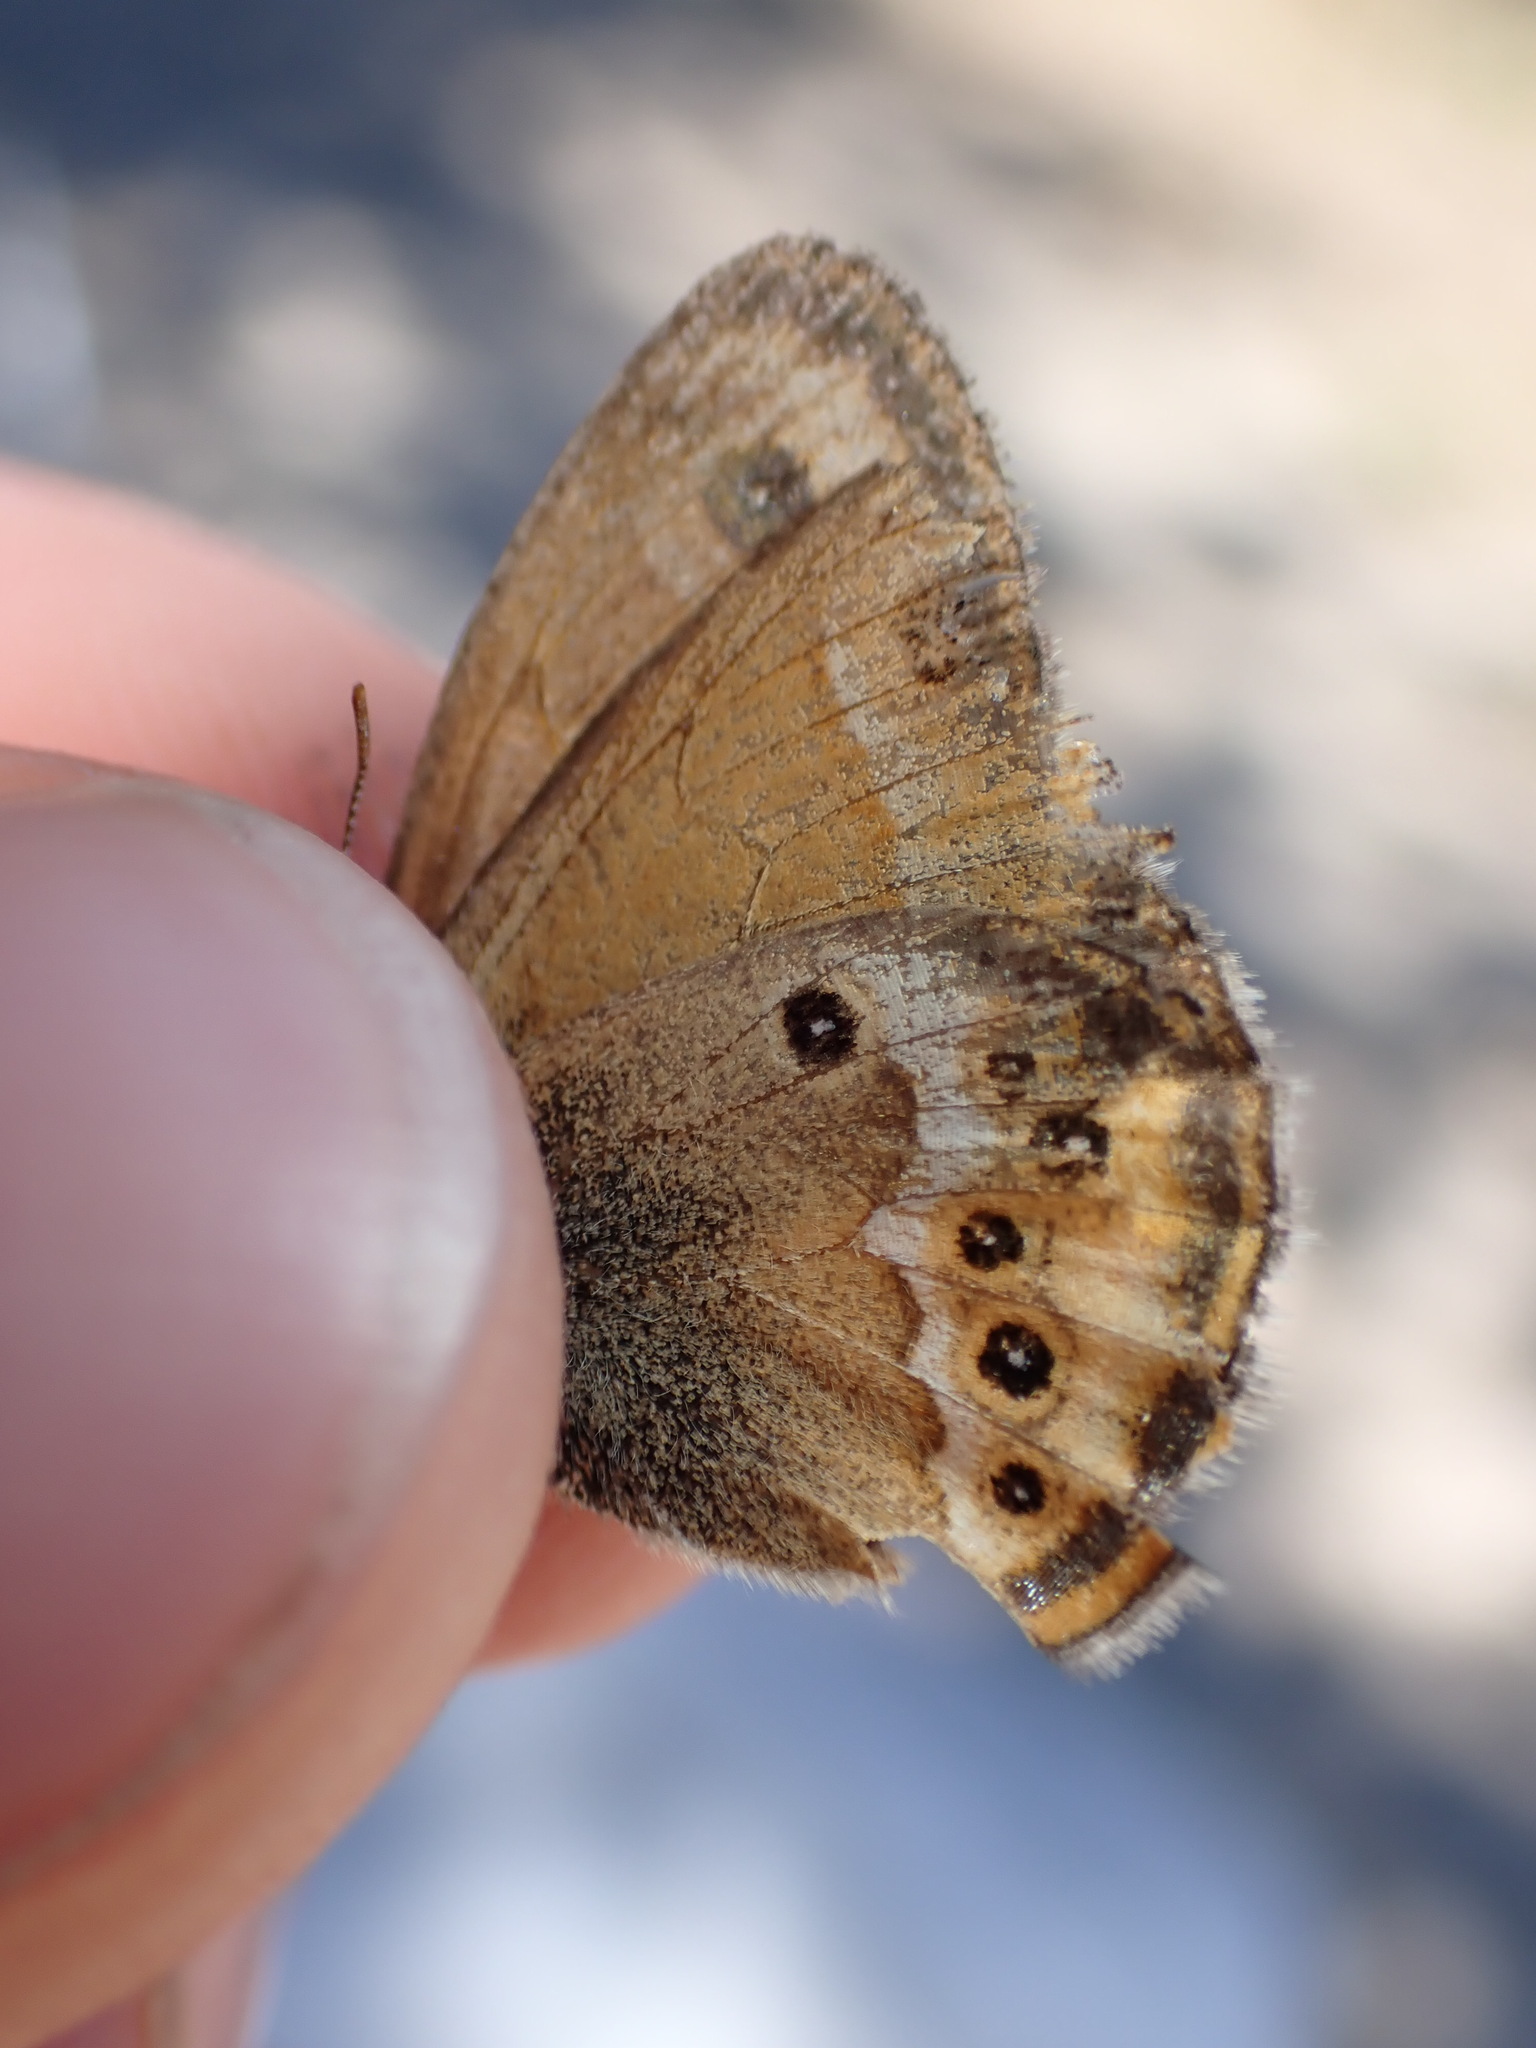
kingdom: Animalia
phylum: Arthropoda
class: Insecta
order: Lepidoptera
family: Nymphalidae
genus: Coenonympha
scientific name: Coenonympha dorus
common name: Dusky heath
